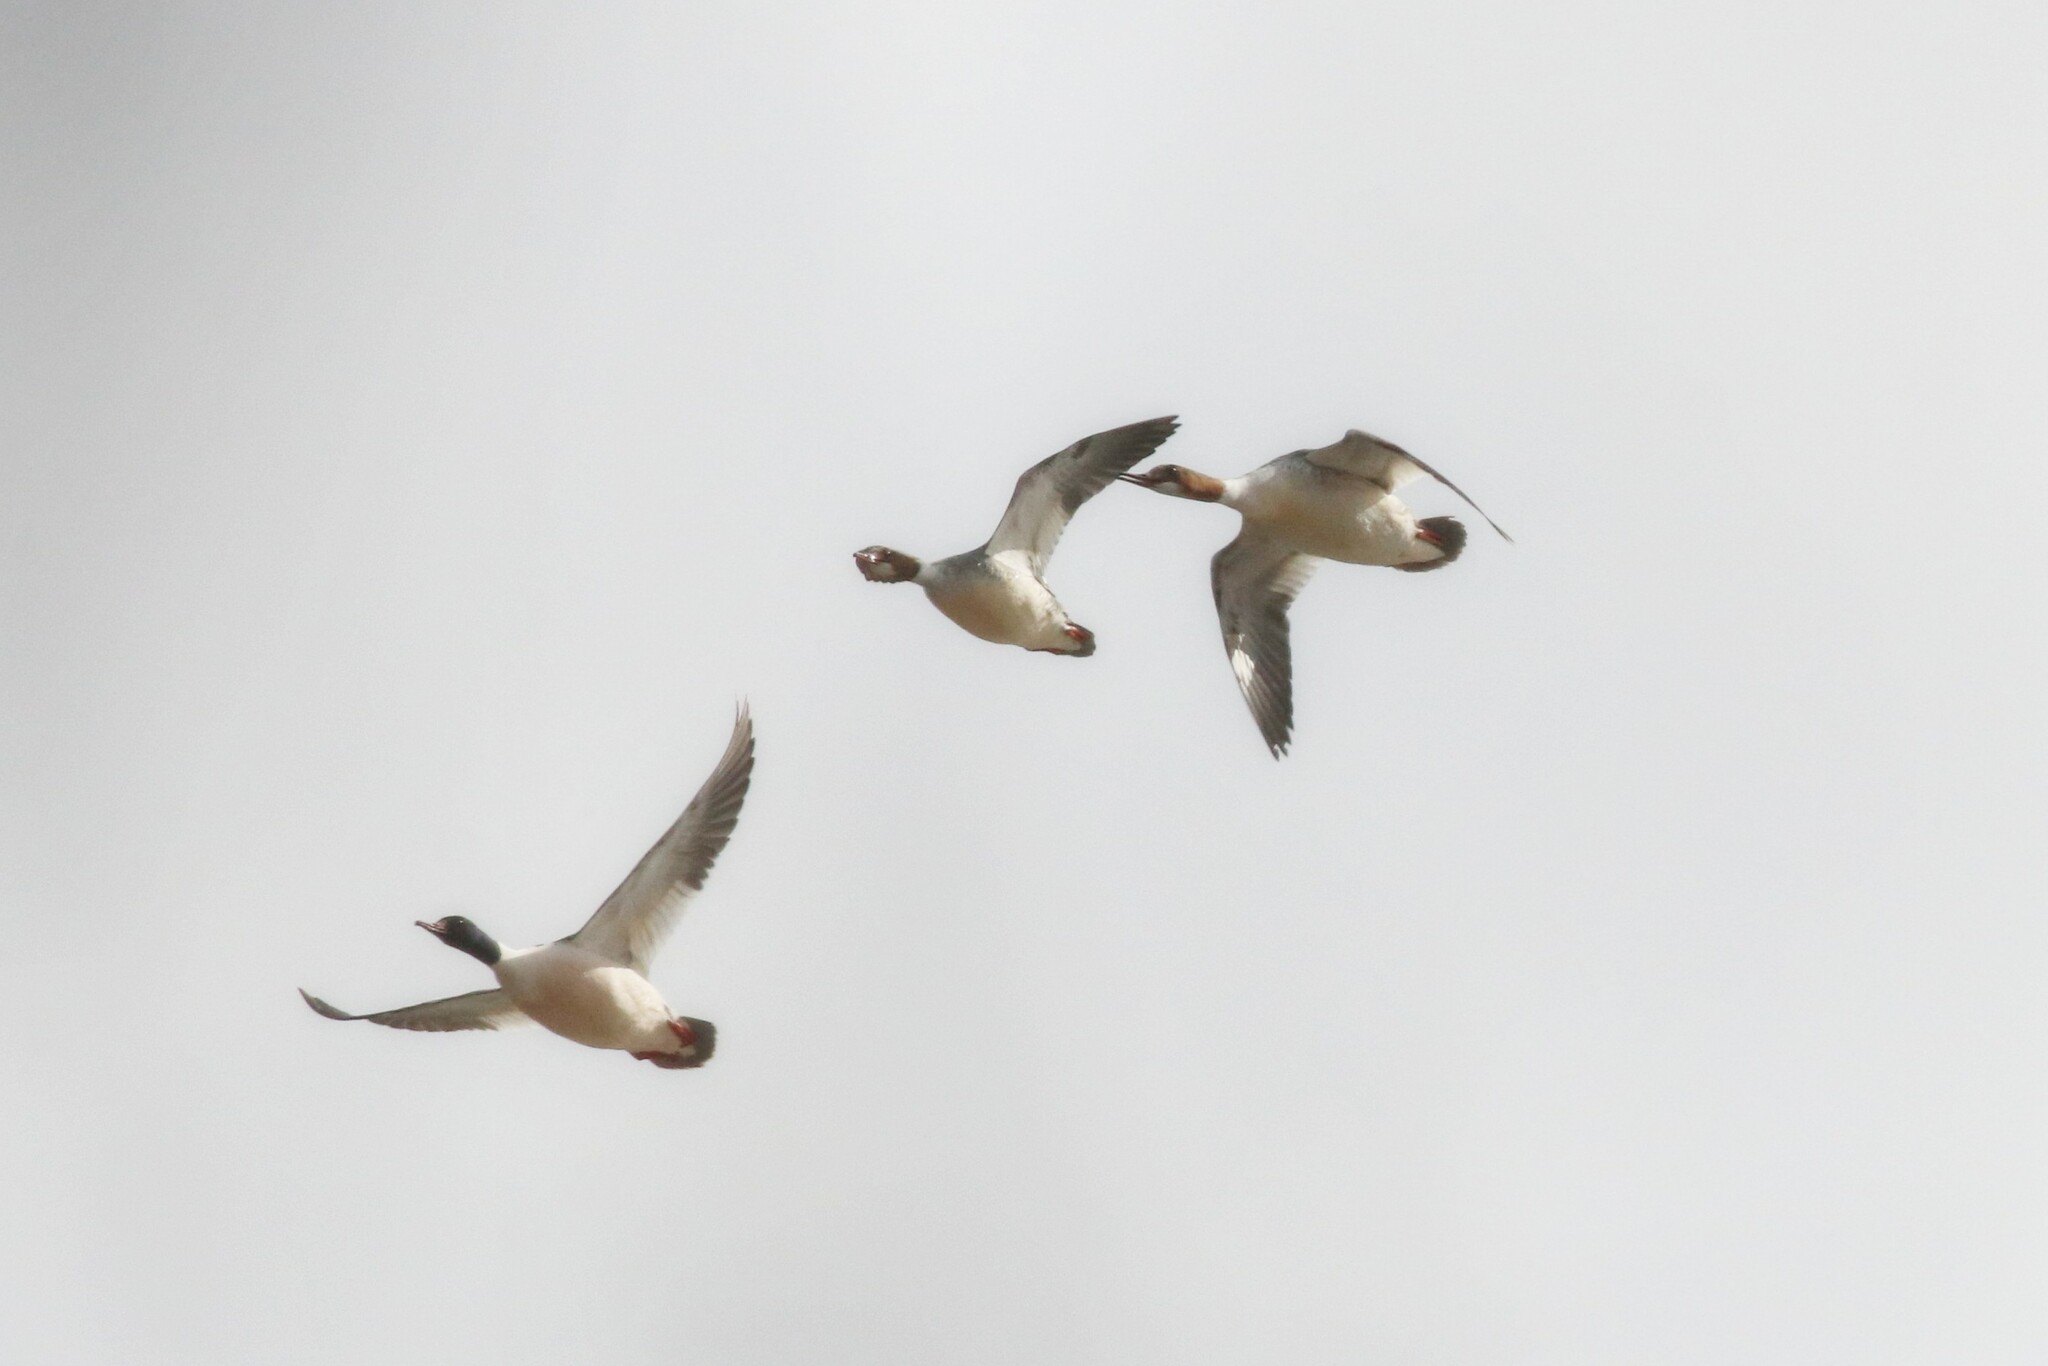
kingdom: Animalia
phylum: Chordata
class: Aves
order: Anseriformes
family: Anatidae
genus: Mergus
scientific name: Mergus merganser
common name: Common merganser
